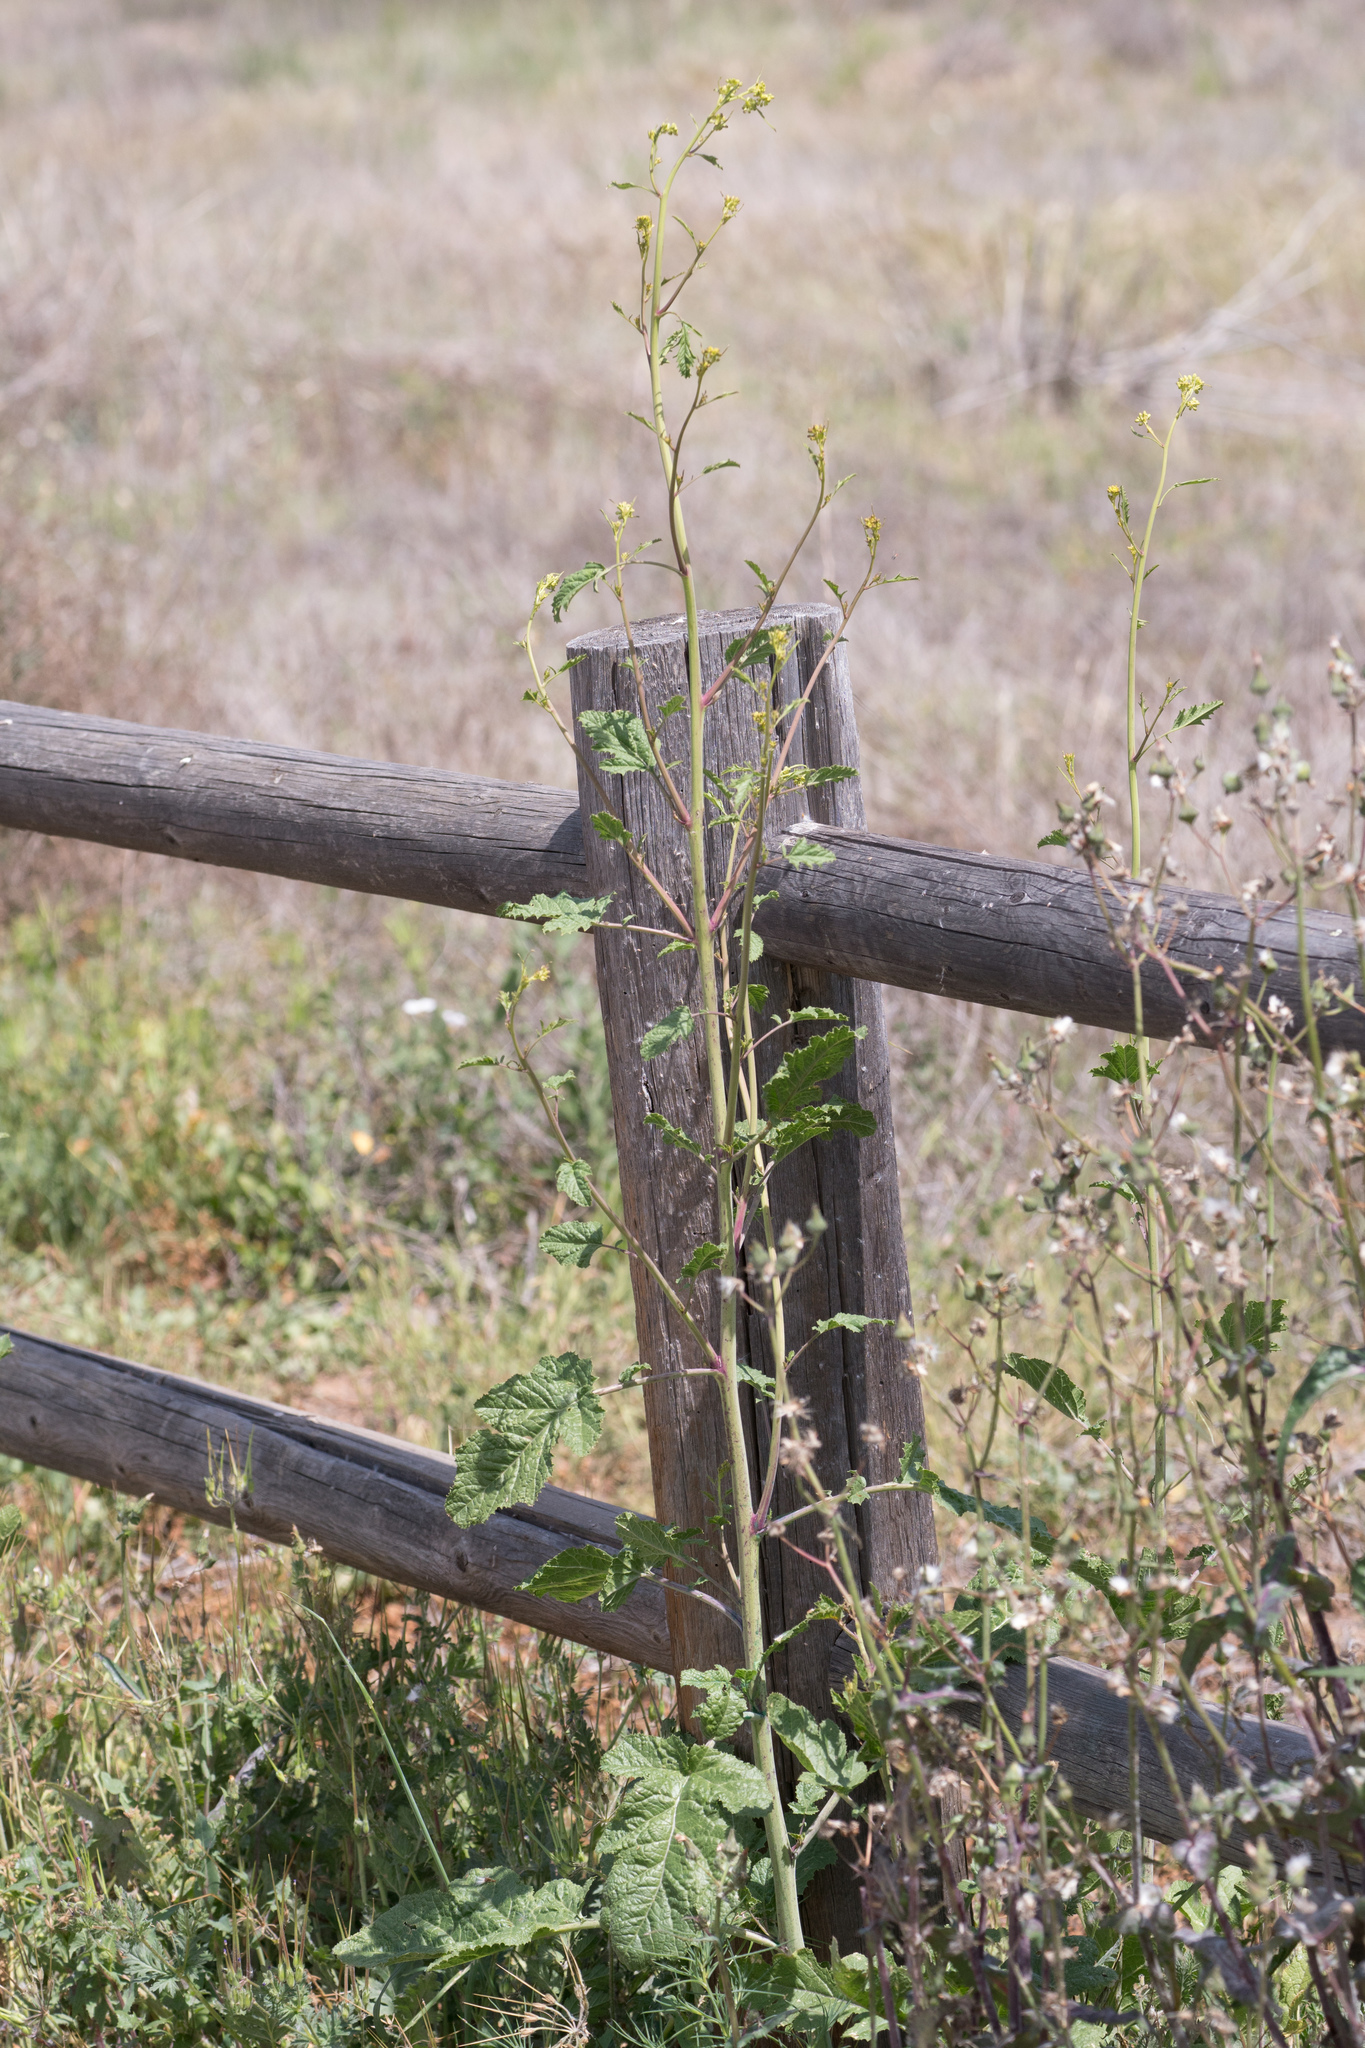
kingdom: Plantae
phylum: Tracheophyta
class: Magnoliopsida
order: Brassicales
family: Brassicaceae
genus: Brassica
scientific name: Brassica nigra
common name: Black mustard
